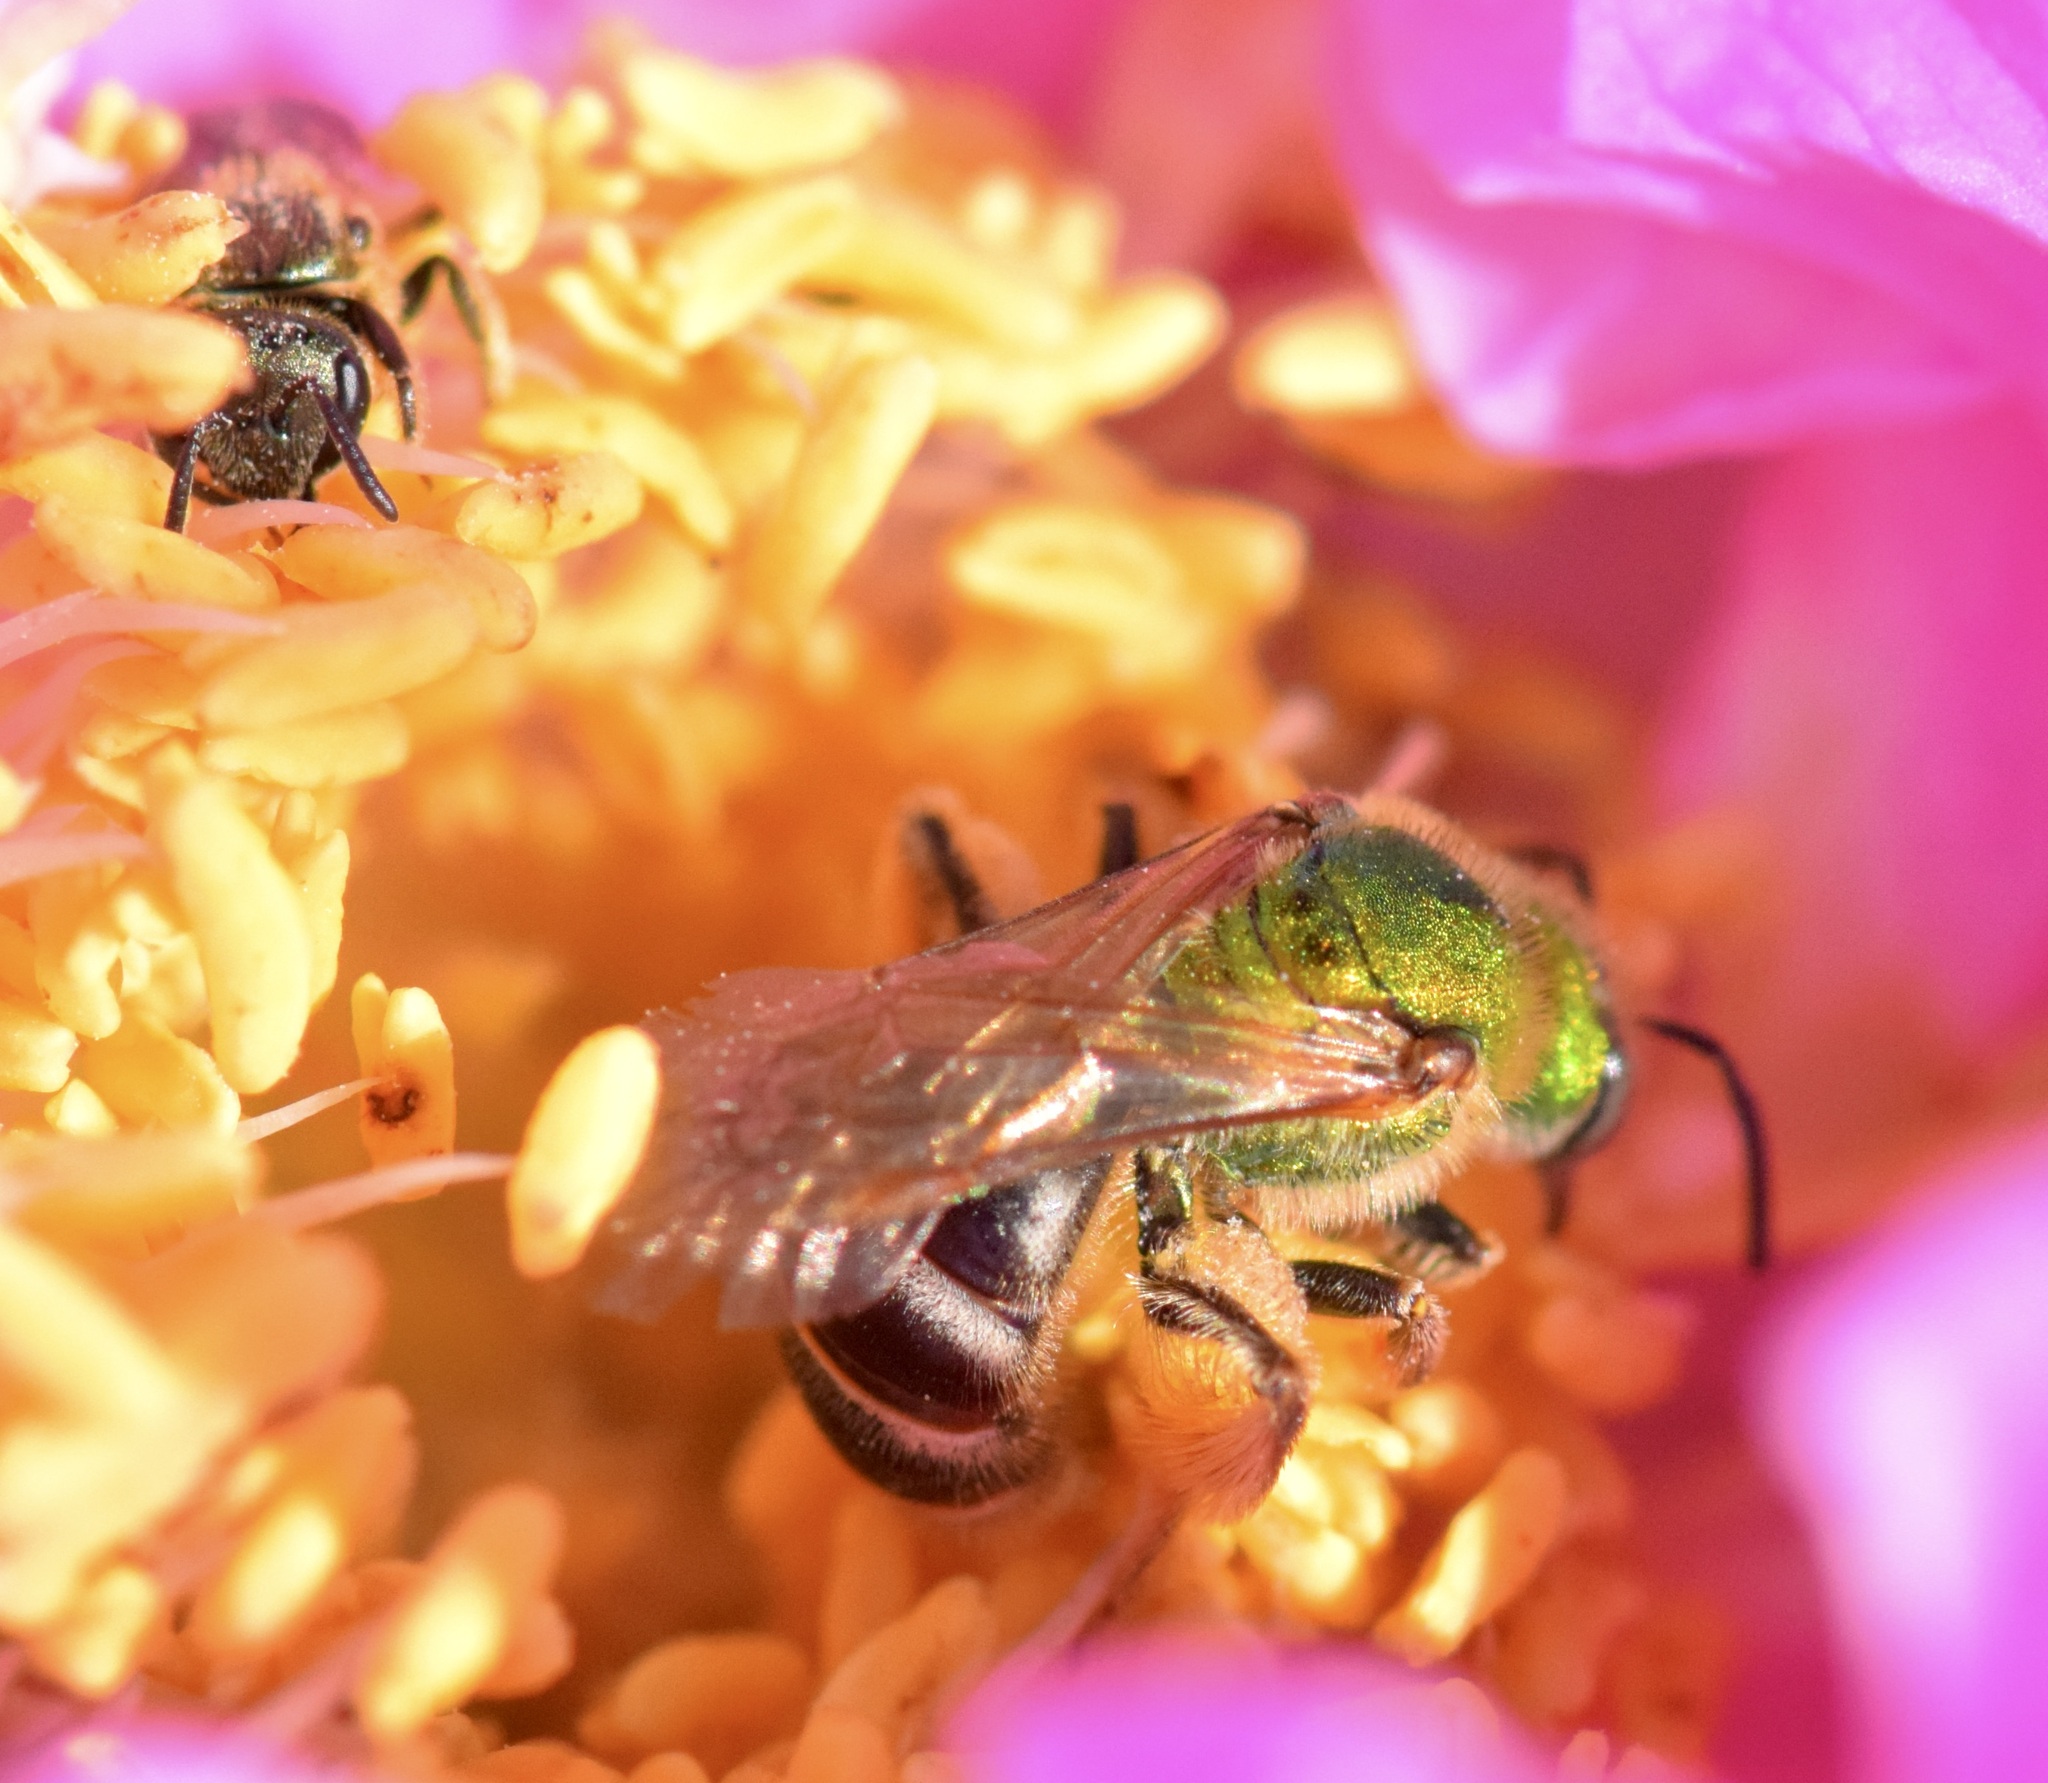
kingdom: Animalia
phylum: Arthropoda
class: Insecta
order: Hymenoptera
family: Halictidae
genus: Agapostemon
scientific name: Agapostemon virescens
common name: Bicolored striped sweat bee
